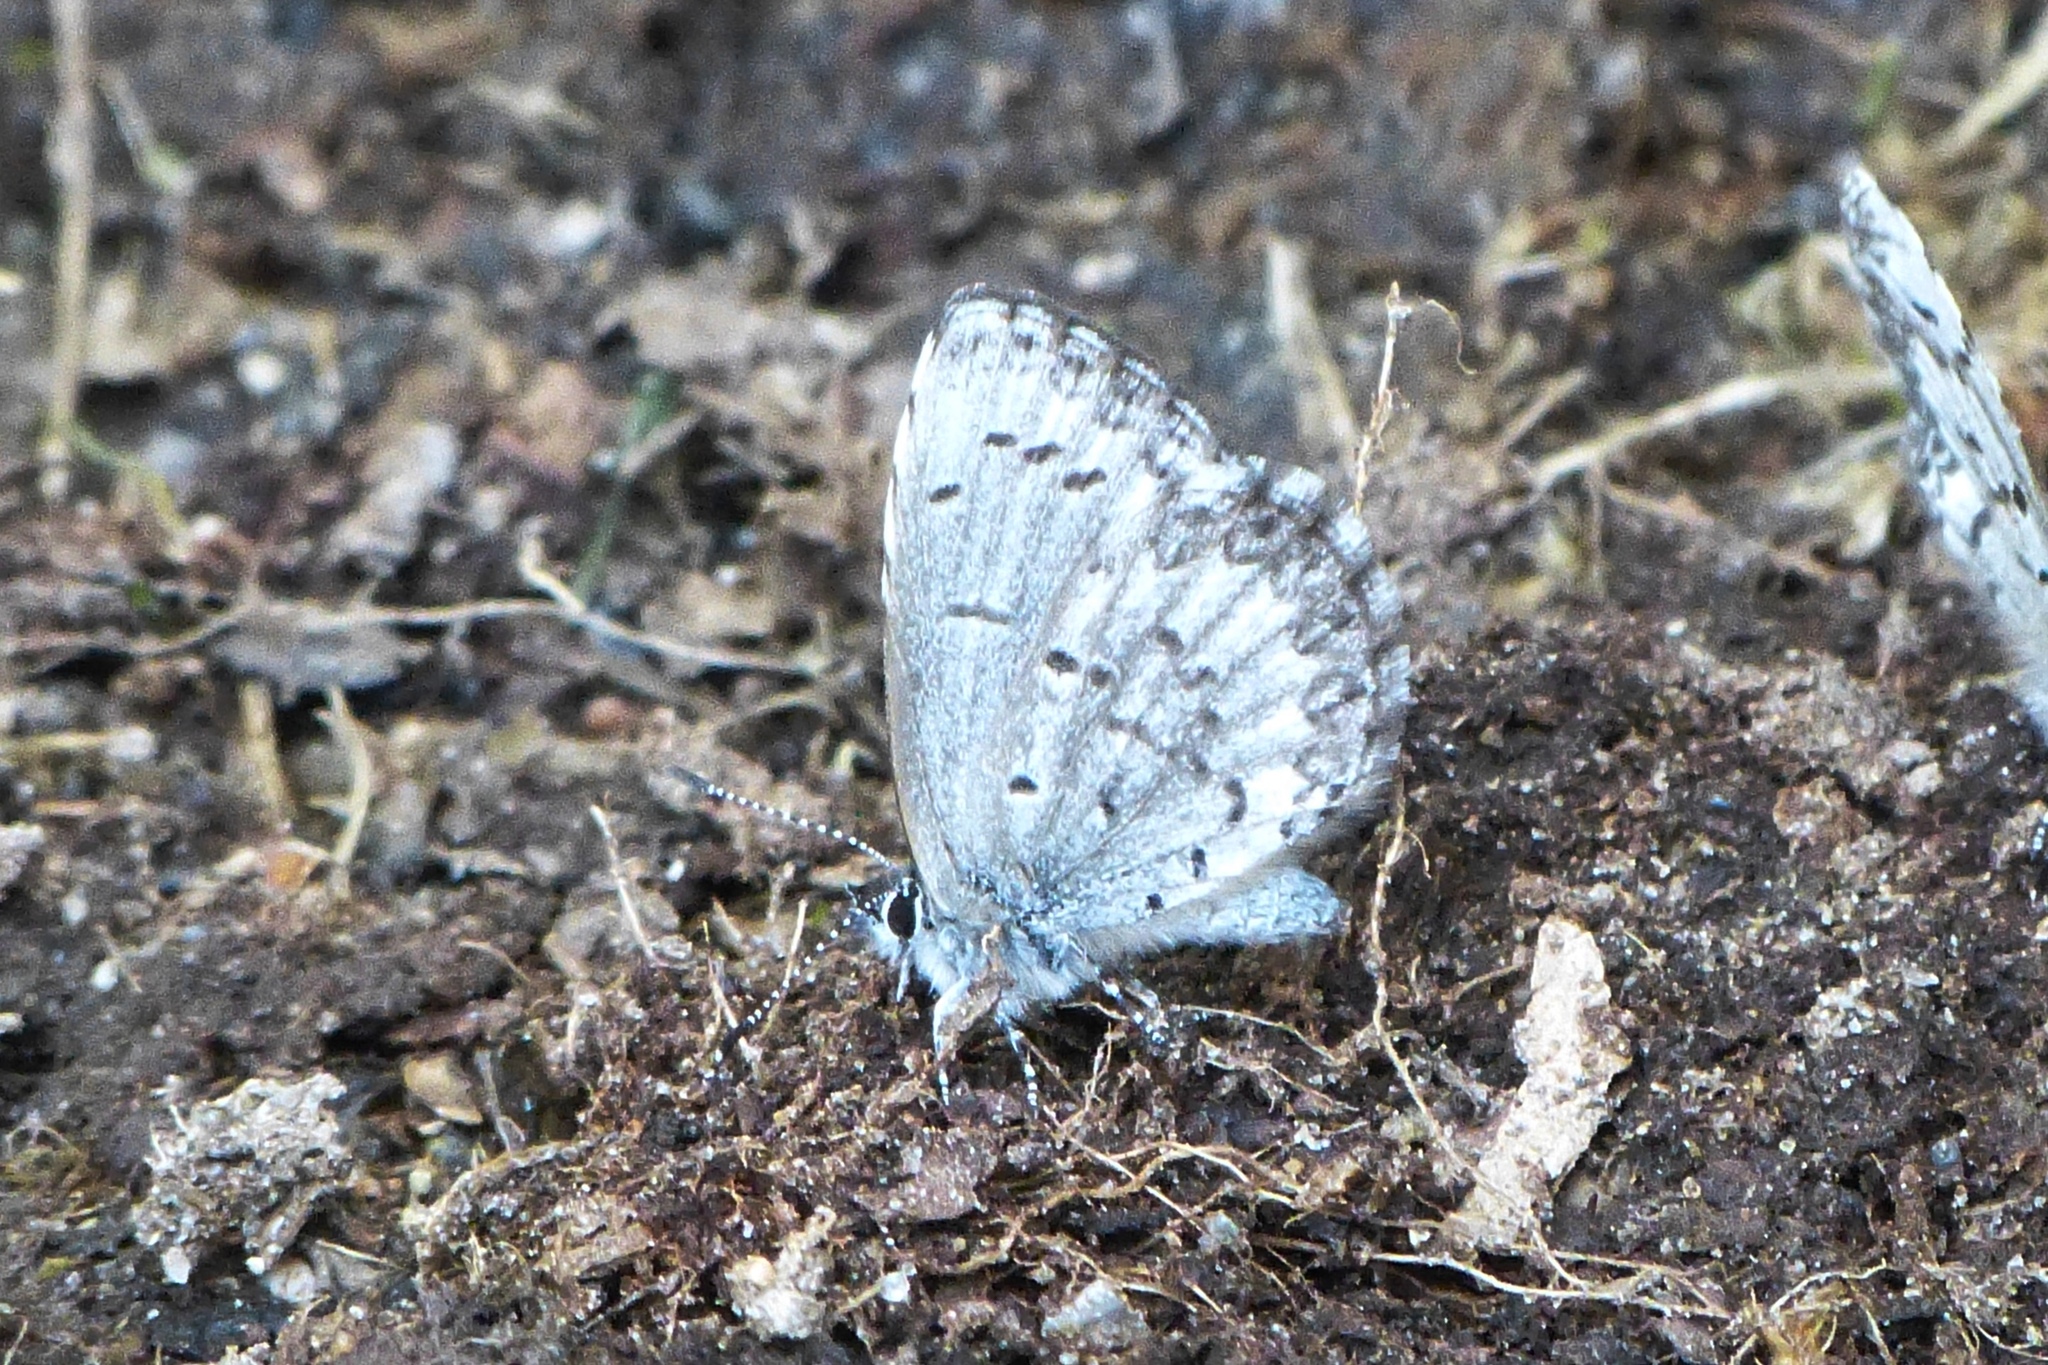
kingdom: Animalia
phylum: Arthropoda
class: Insecta
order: Lepidoptera
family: Lycaenidae
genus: Celastrina
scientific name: Celastrina lucia
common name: Lucia azure
